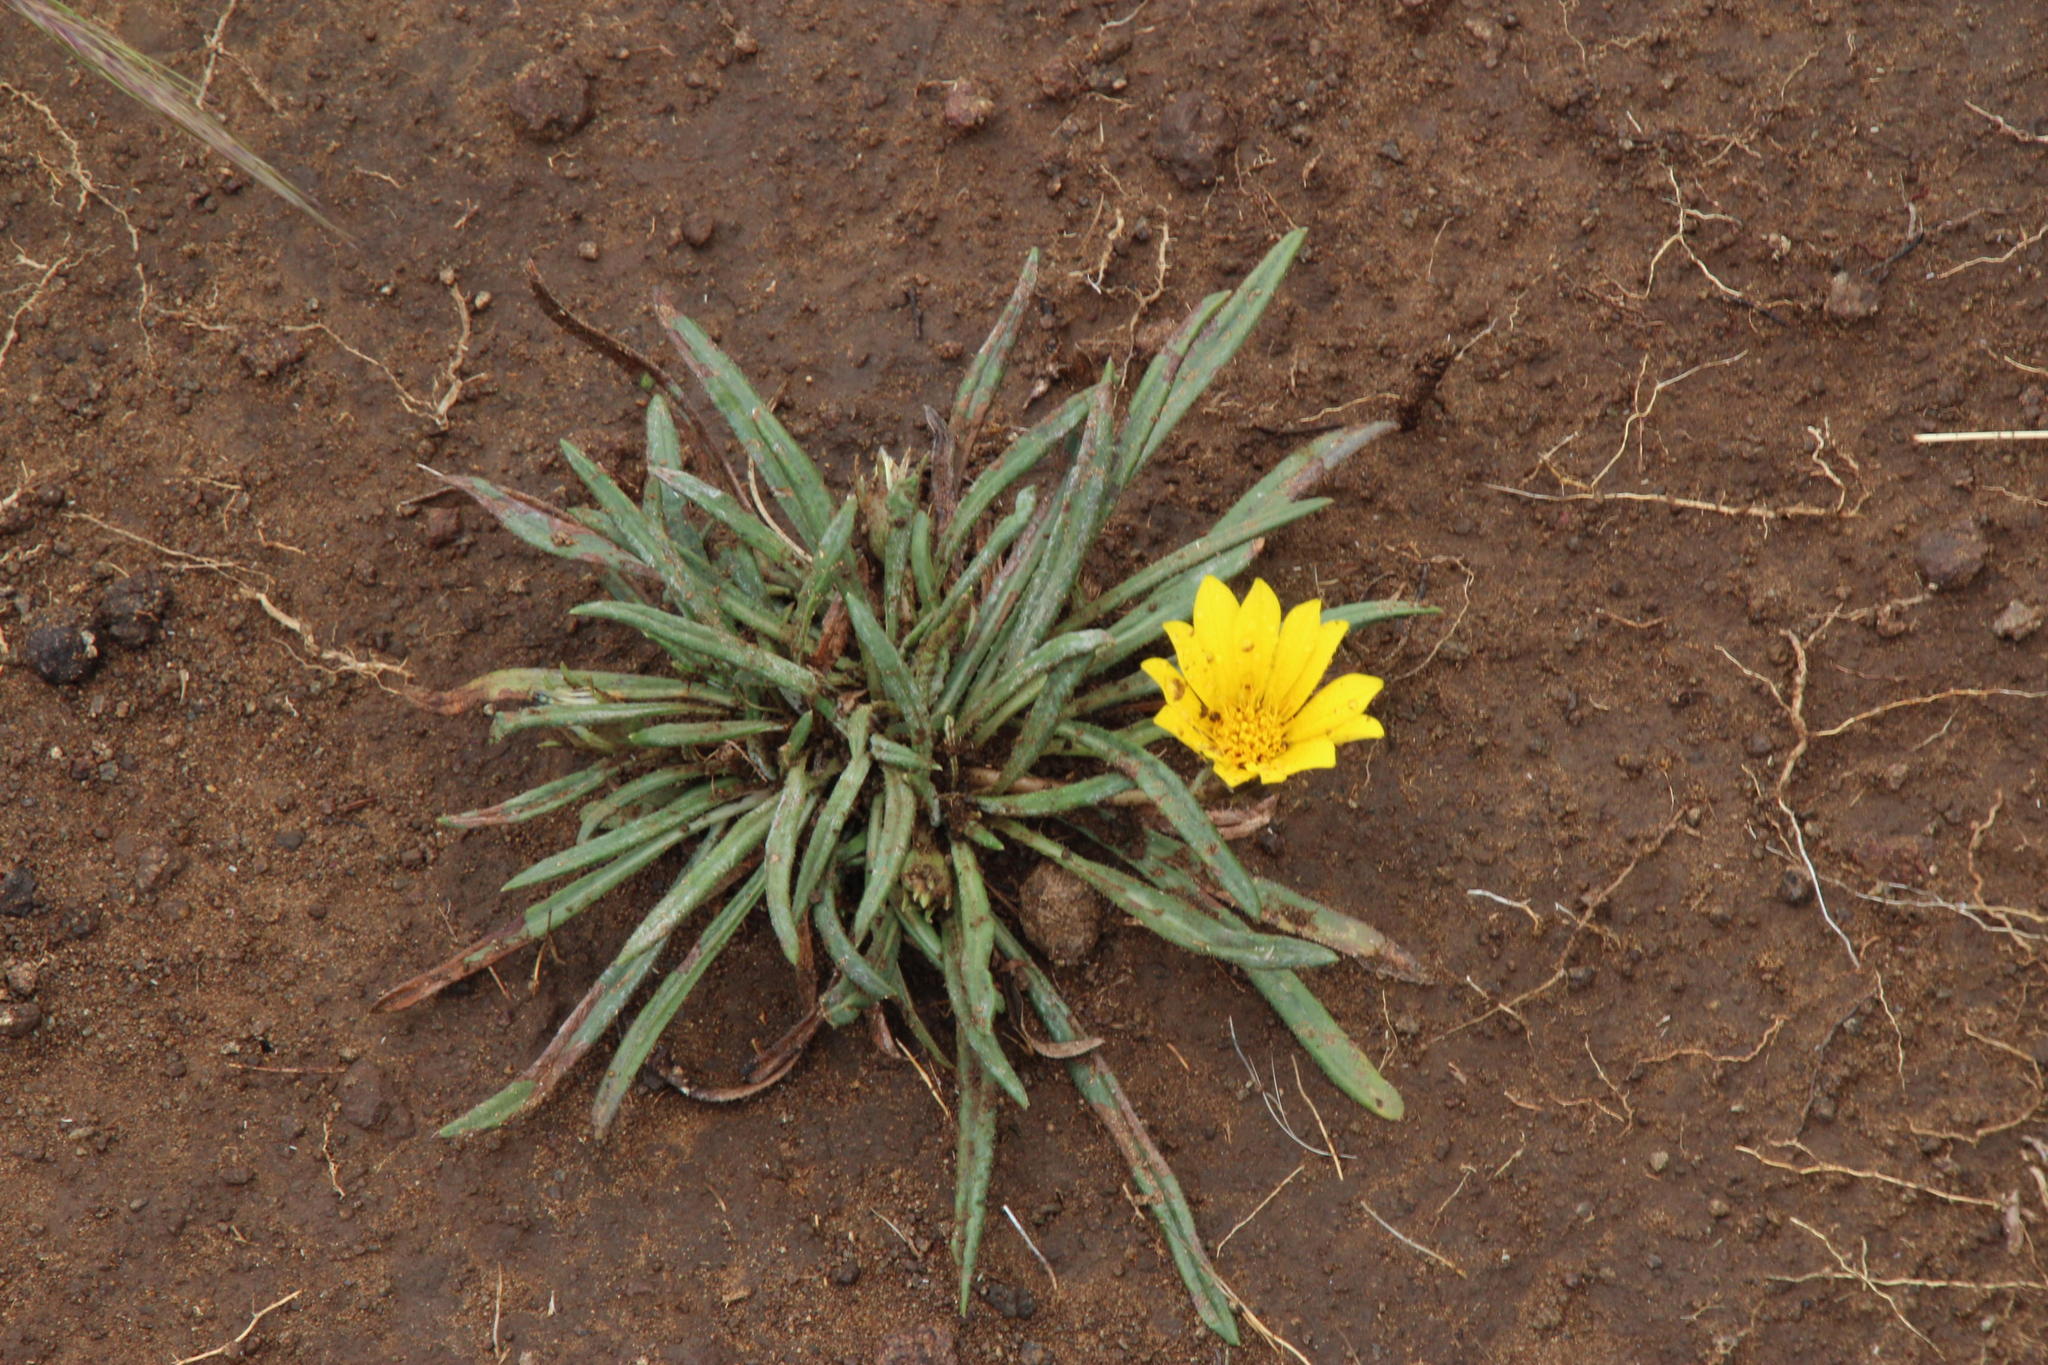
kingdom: Plantae
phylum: Tracheophyta
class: Magnoliopsida
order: Asterales
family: Asteraceae
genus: Gazania
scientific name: Gazania krebsiana
